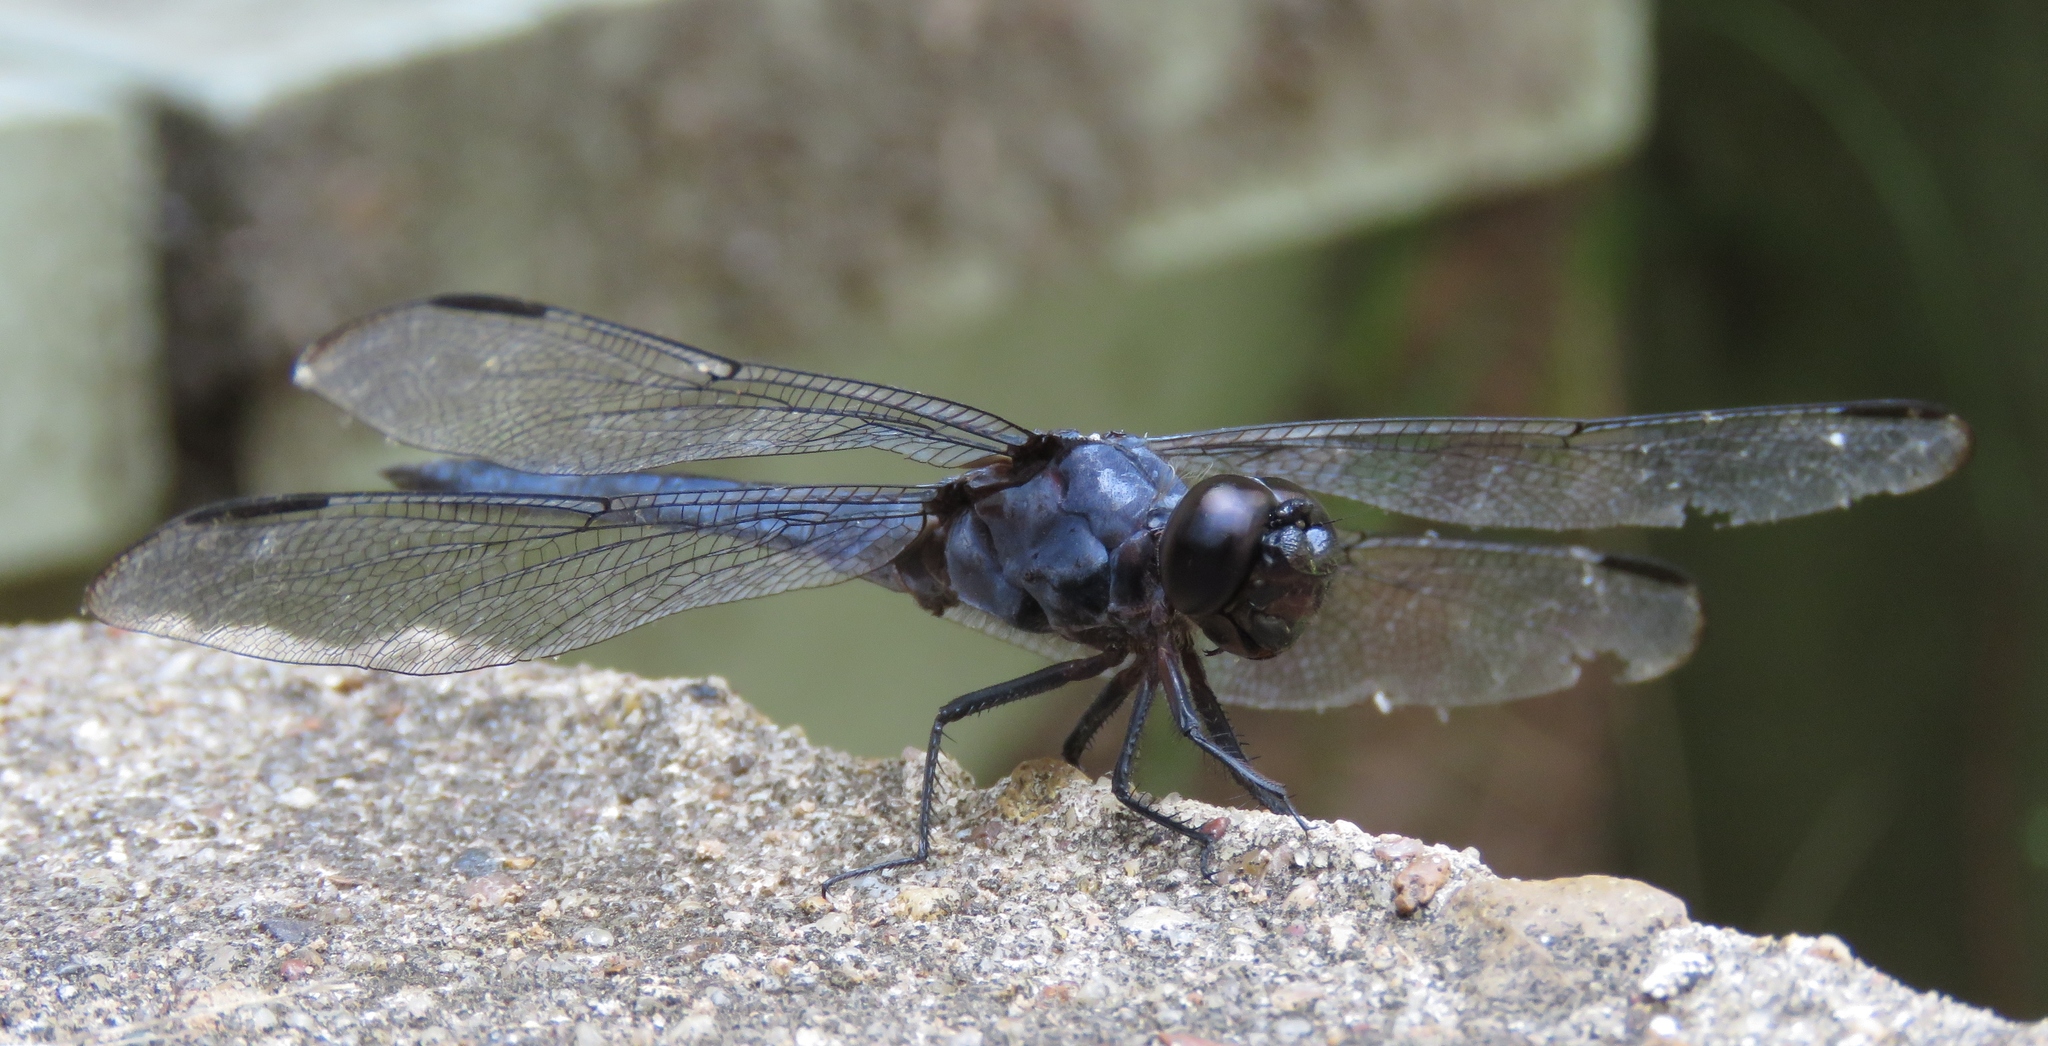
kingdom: Animalia
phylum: Arthropoda
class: Insecta
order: Odonata
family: Libellulidae
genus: Libellula
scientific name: Libellula incesta
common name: Slaty skimmer
